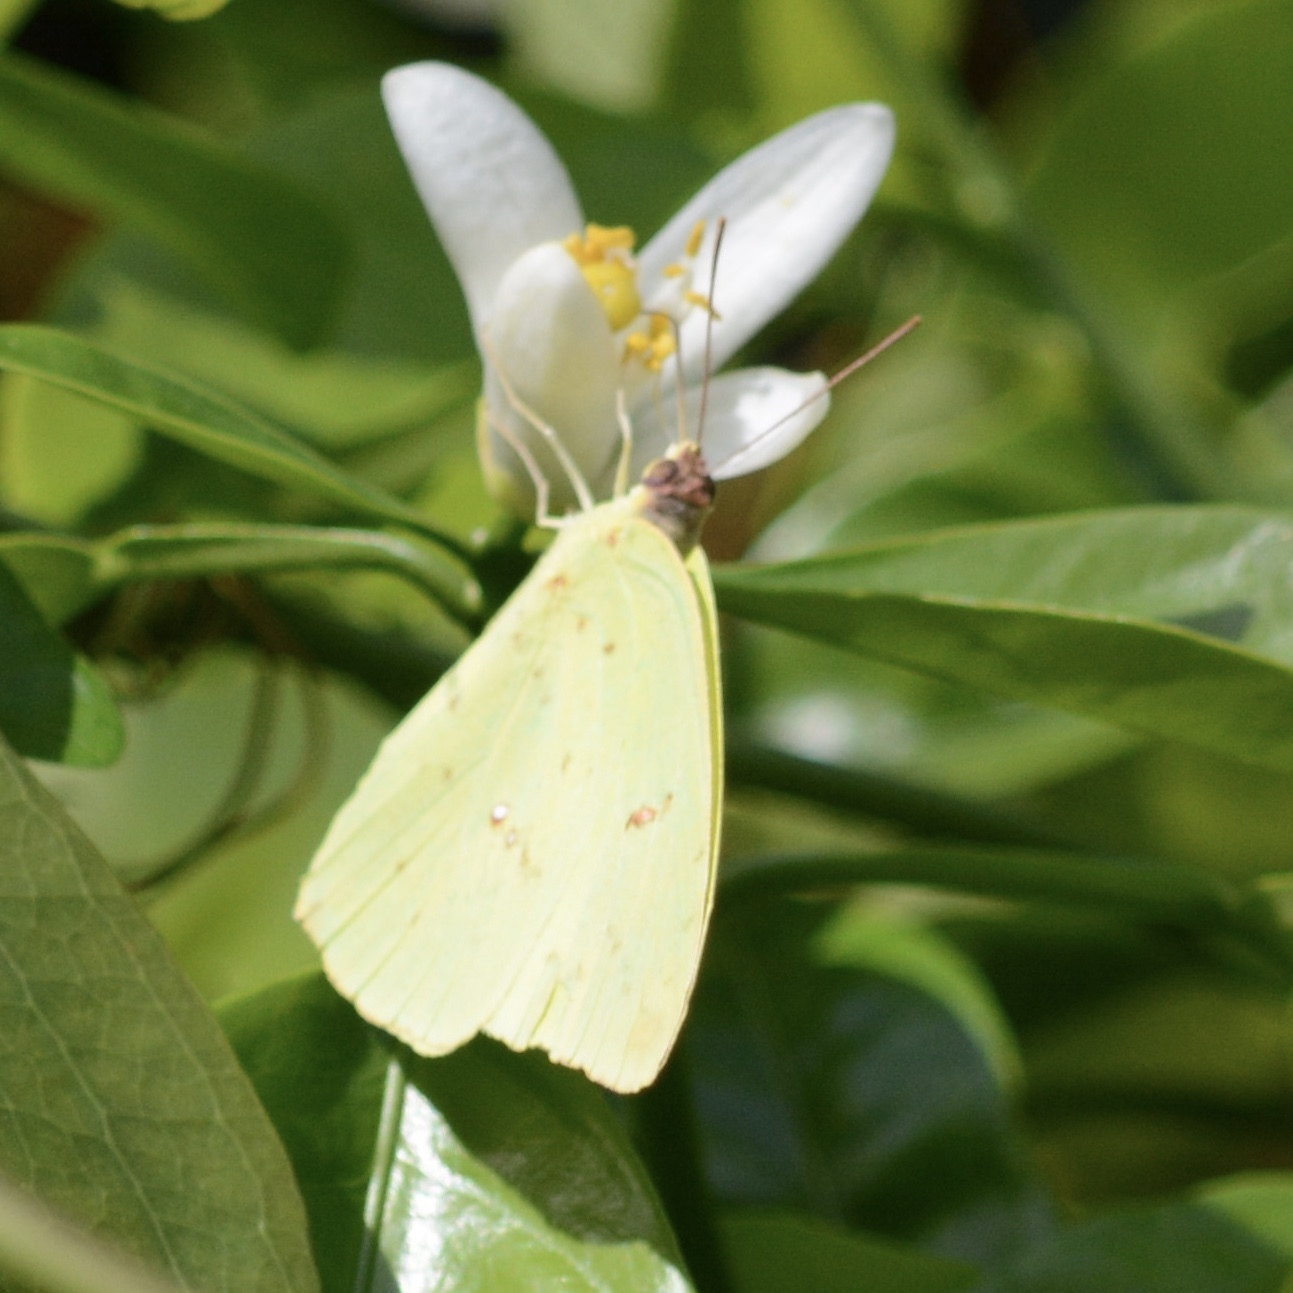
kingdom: Animalia
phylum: Arthropoda
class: Insecta
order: Lepidoptera
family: Pieridae
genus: Phoebis
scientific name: Phoebis sennae
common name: Cloudless sulphur
